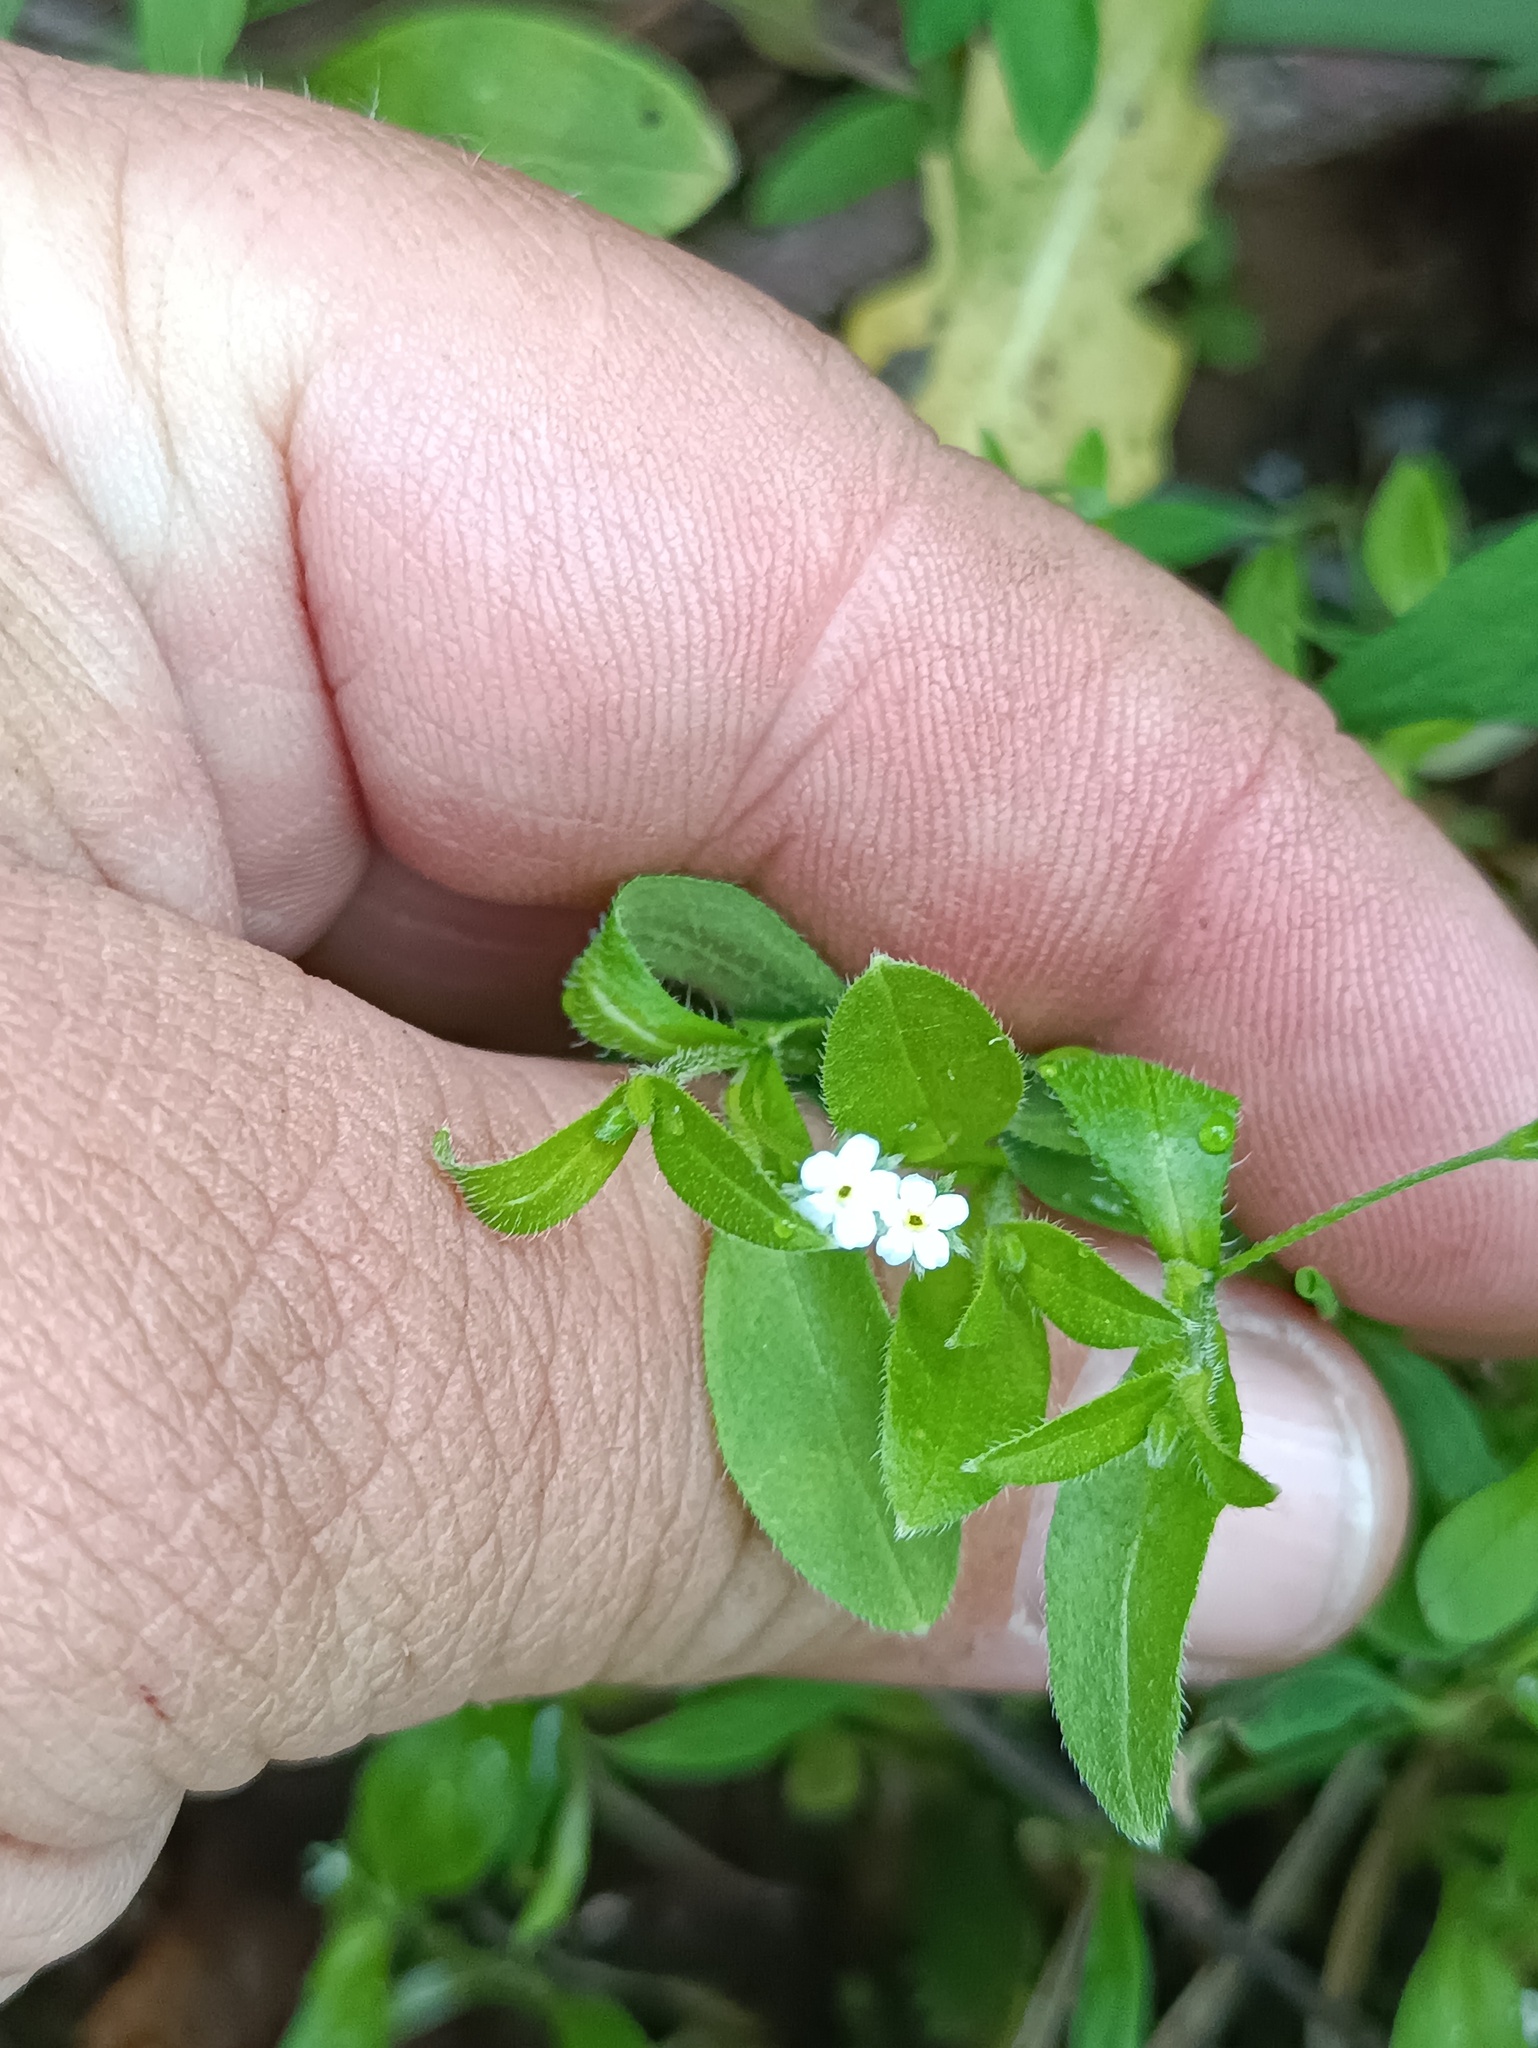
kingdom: Plantae
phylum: Tracheophyta
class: Magnoliopsida
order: Boraginales
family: Boraginaceae
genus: Myosotis
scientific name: Myosotis sparsiflora
